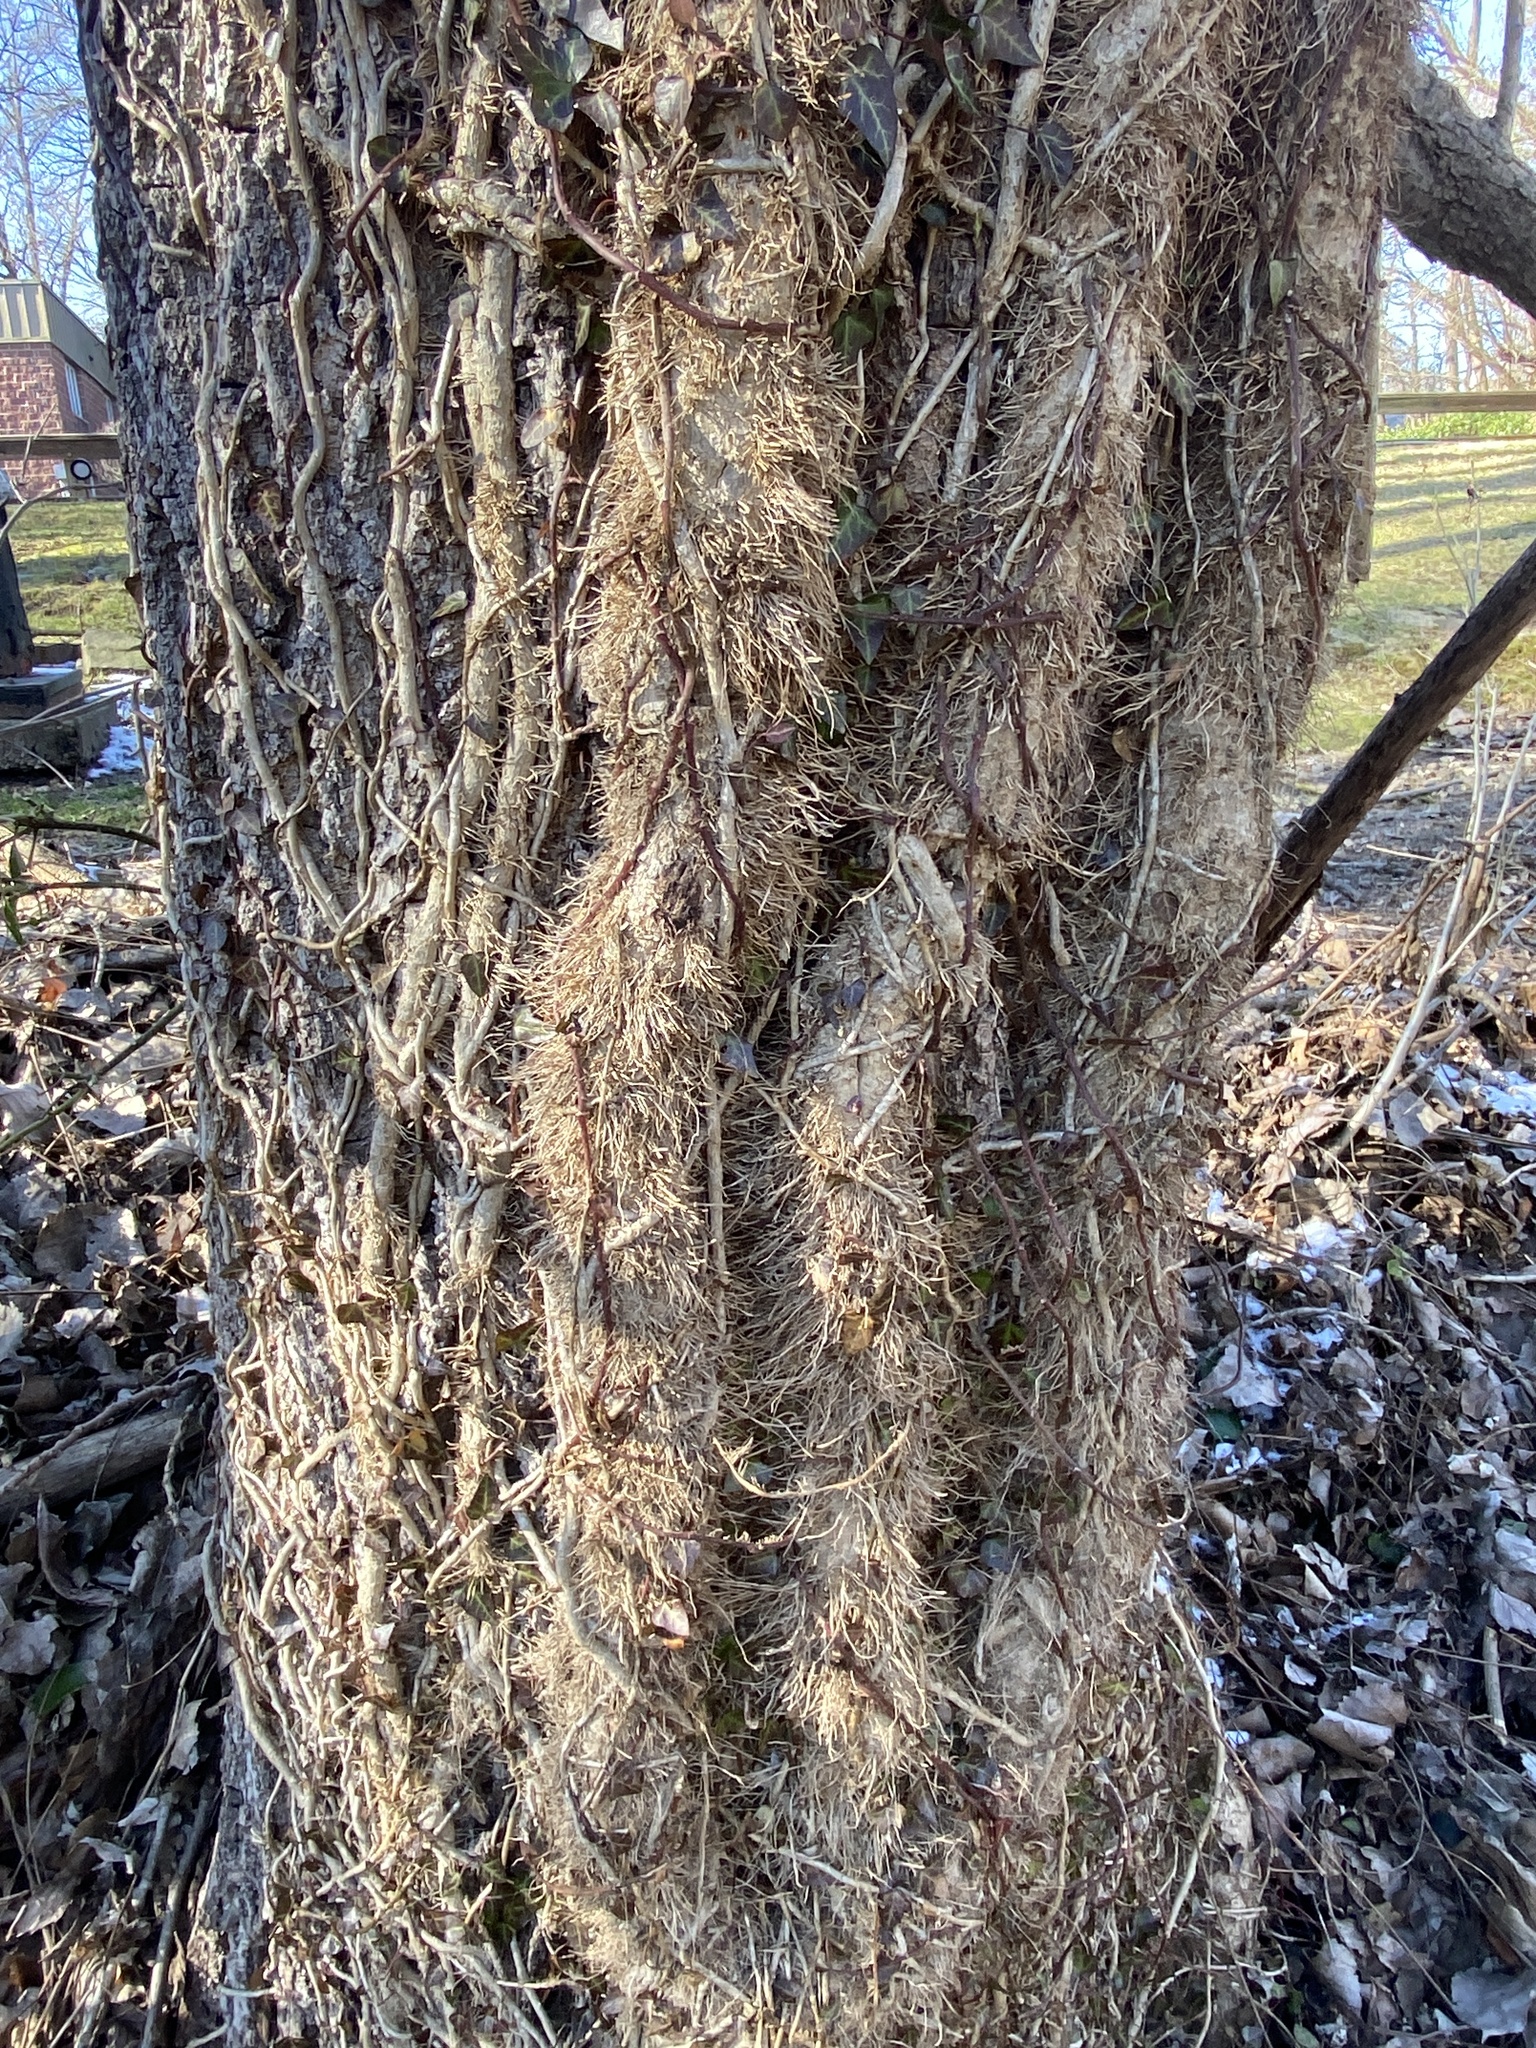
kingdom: Plantae
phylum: Tracheophyta
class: Magnoliopsida
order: Apiales
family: Araliaceae
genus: Hedera
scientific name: Hedera
